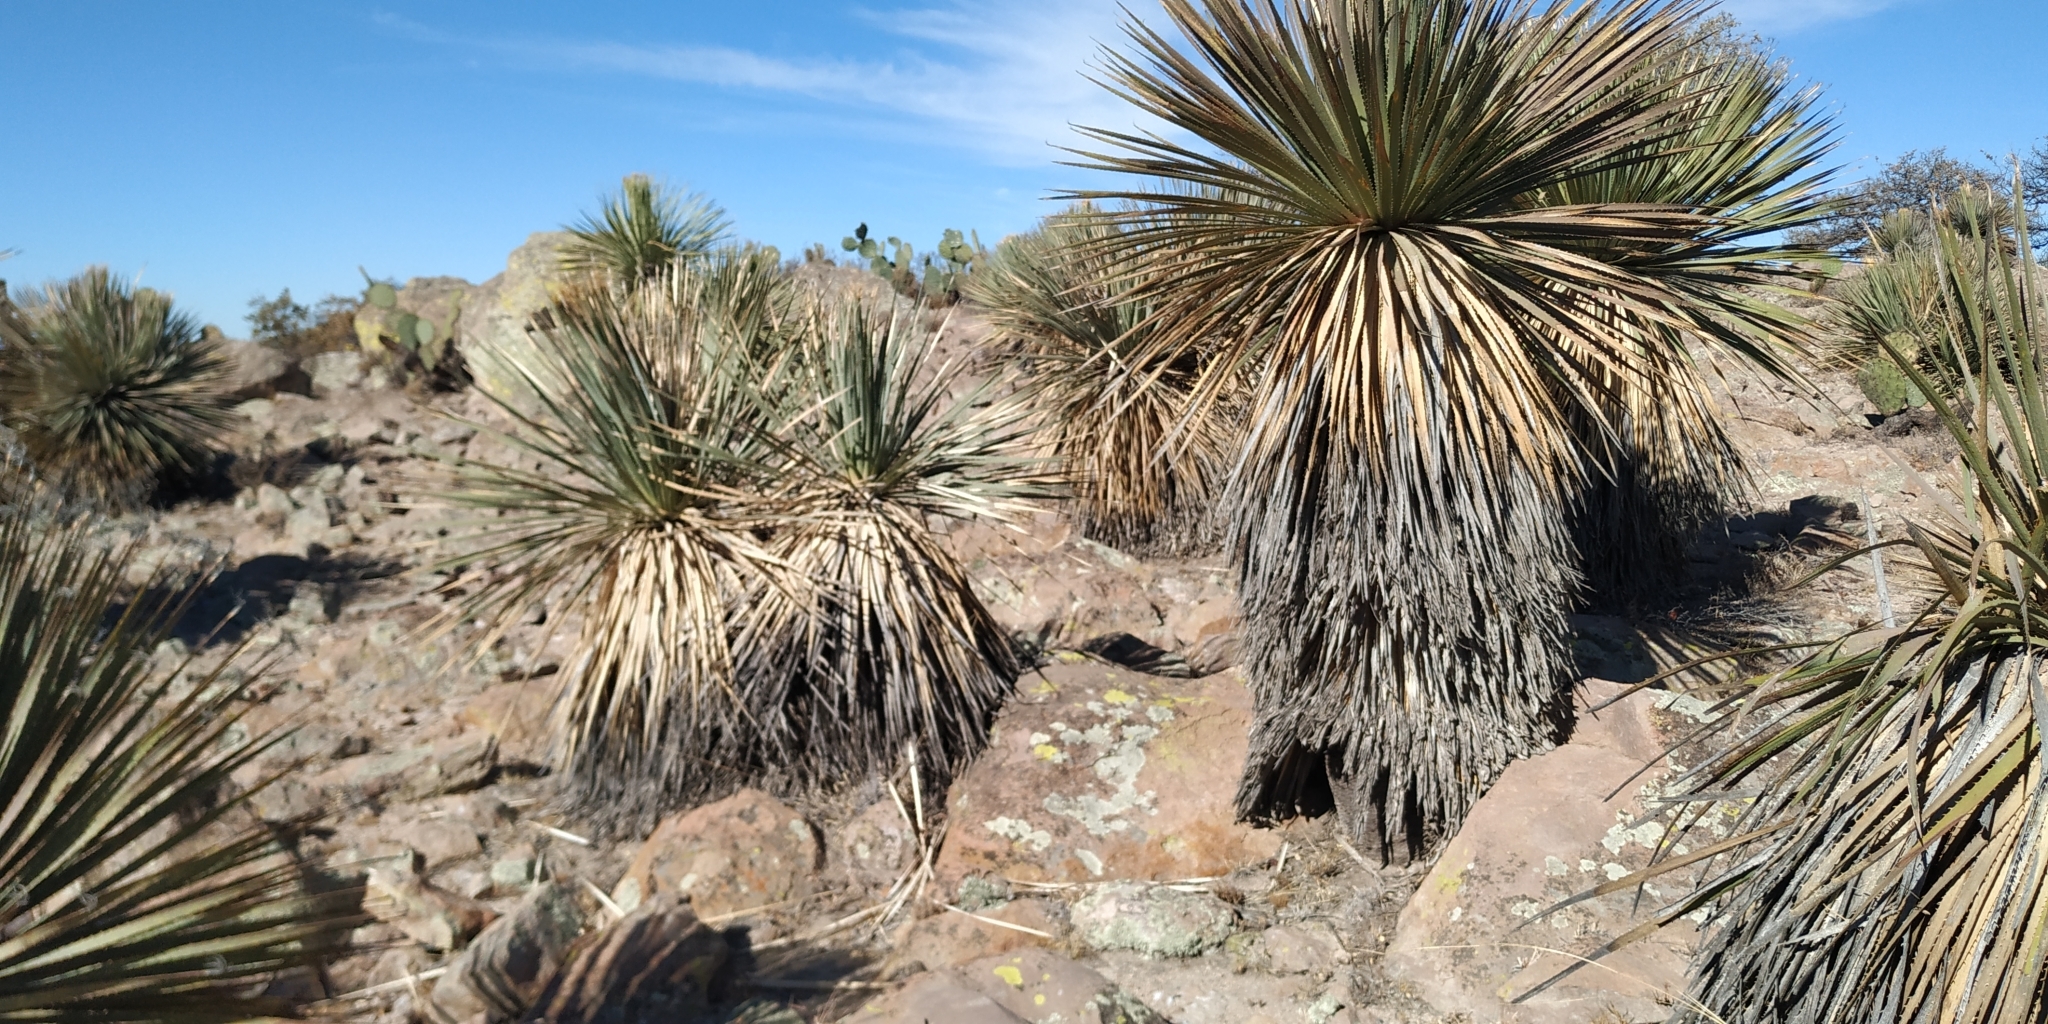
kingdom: Plantae
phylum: Tracheophyta
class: Liliopsida
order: Asparagales
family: Asparagaceae
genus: Dasylirion
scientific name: Dasylirion parryanum
